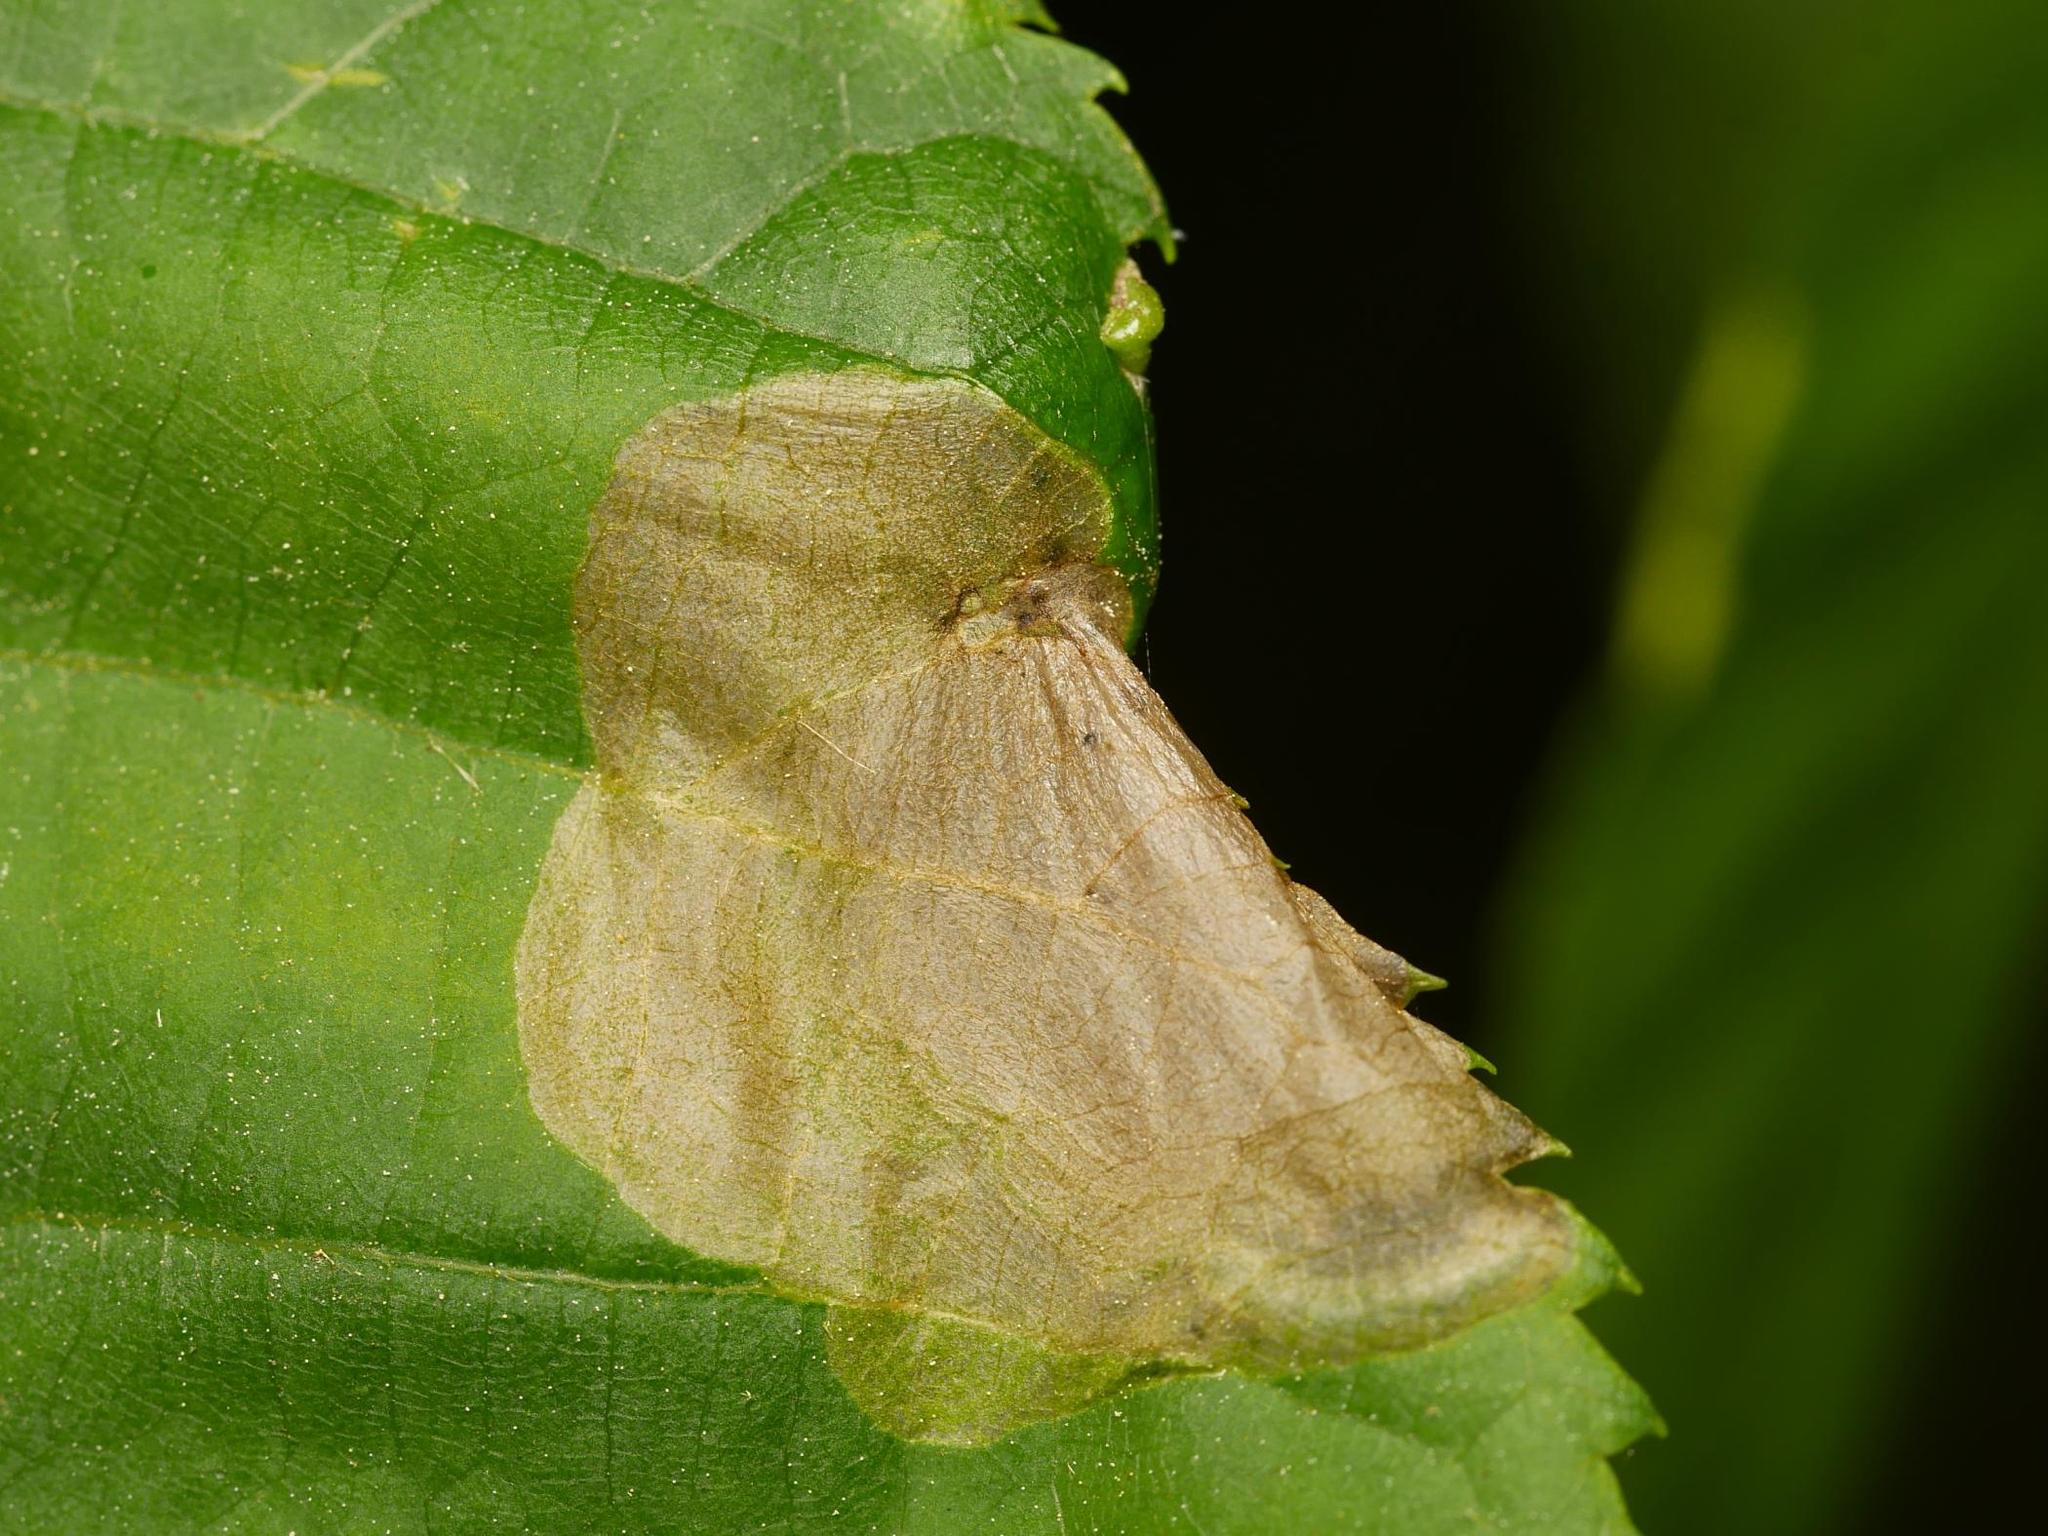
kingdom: Animalia
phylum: Arthropoda
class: Insecta
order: Hymenoptera
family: Tenthredinidae
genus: Parna
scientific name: Parna apicalis
